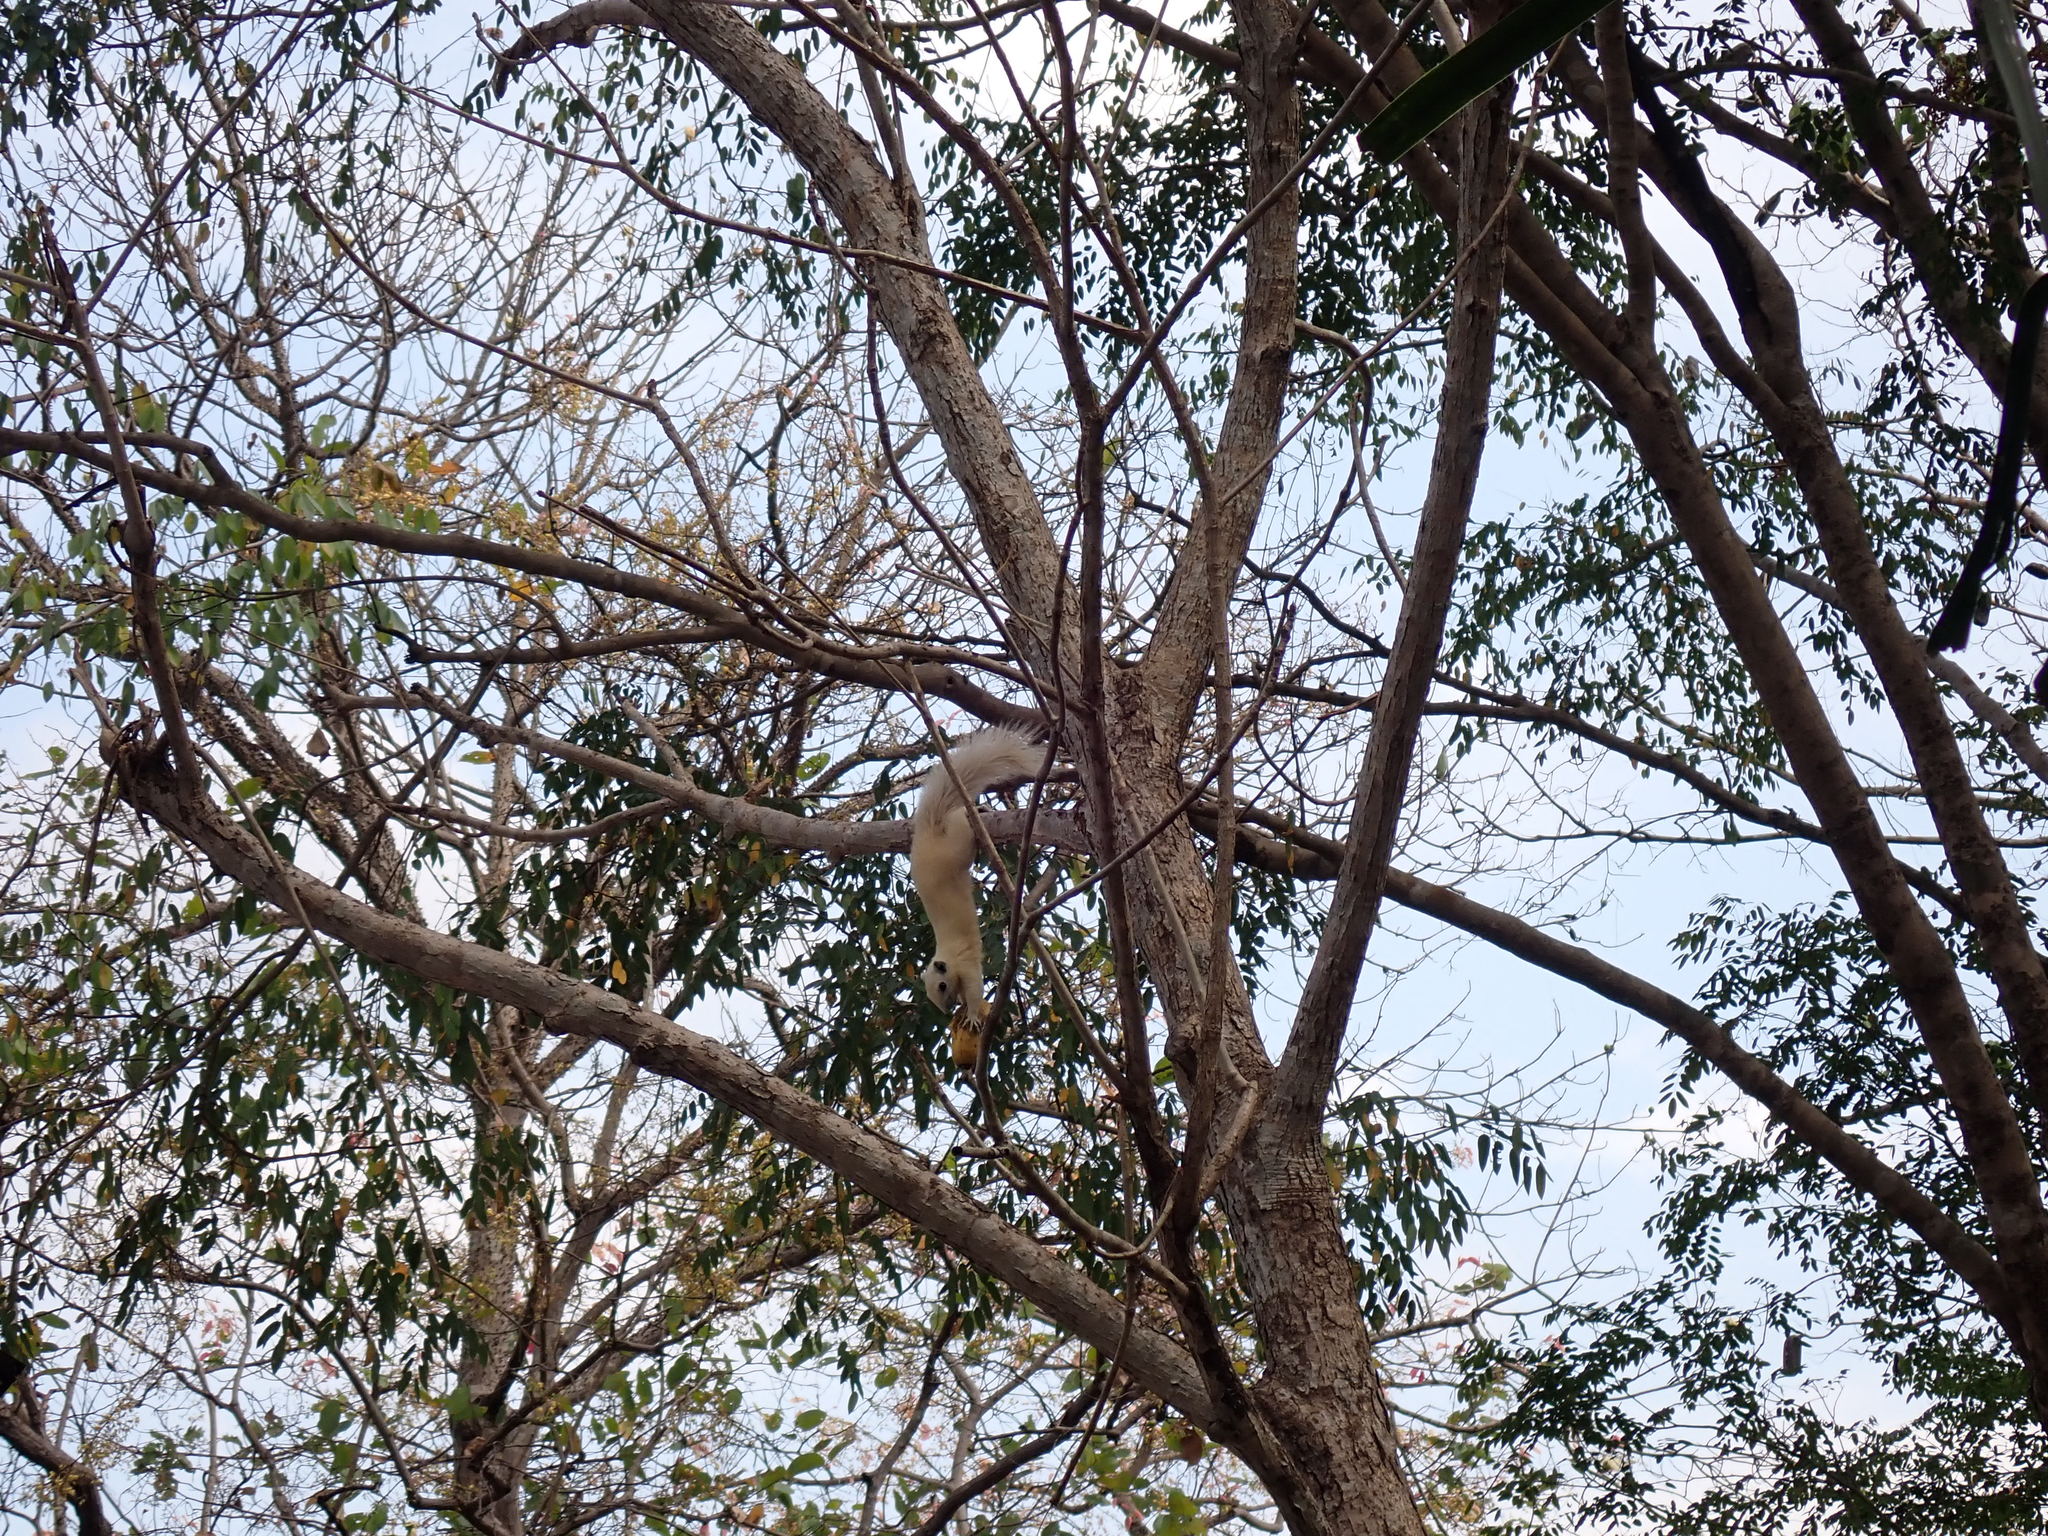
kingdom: Animalia
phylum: Chordata
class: Mammalia
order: Rodentia
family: Sciuridae
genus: Callosciurus
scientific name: Callosciurus finlaysonii
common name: Finlayson's squirrel
